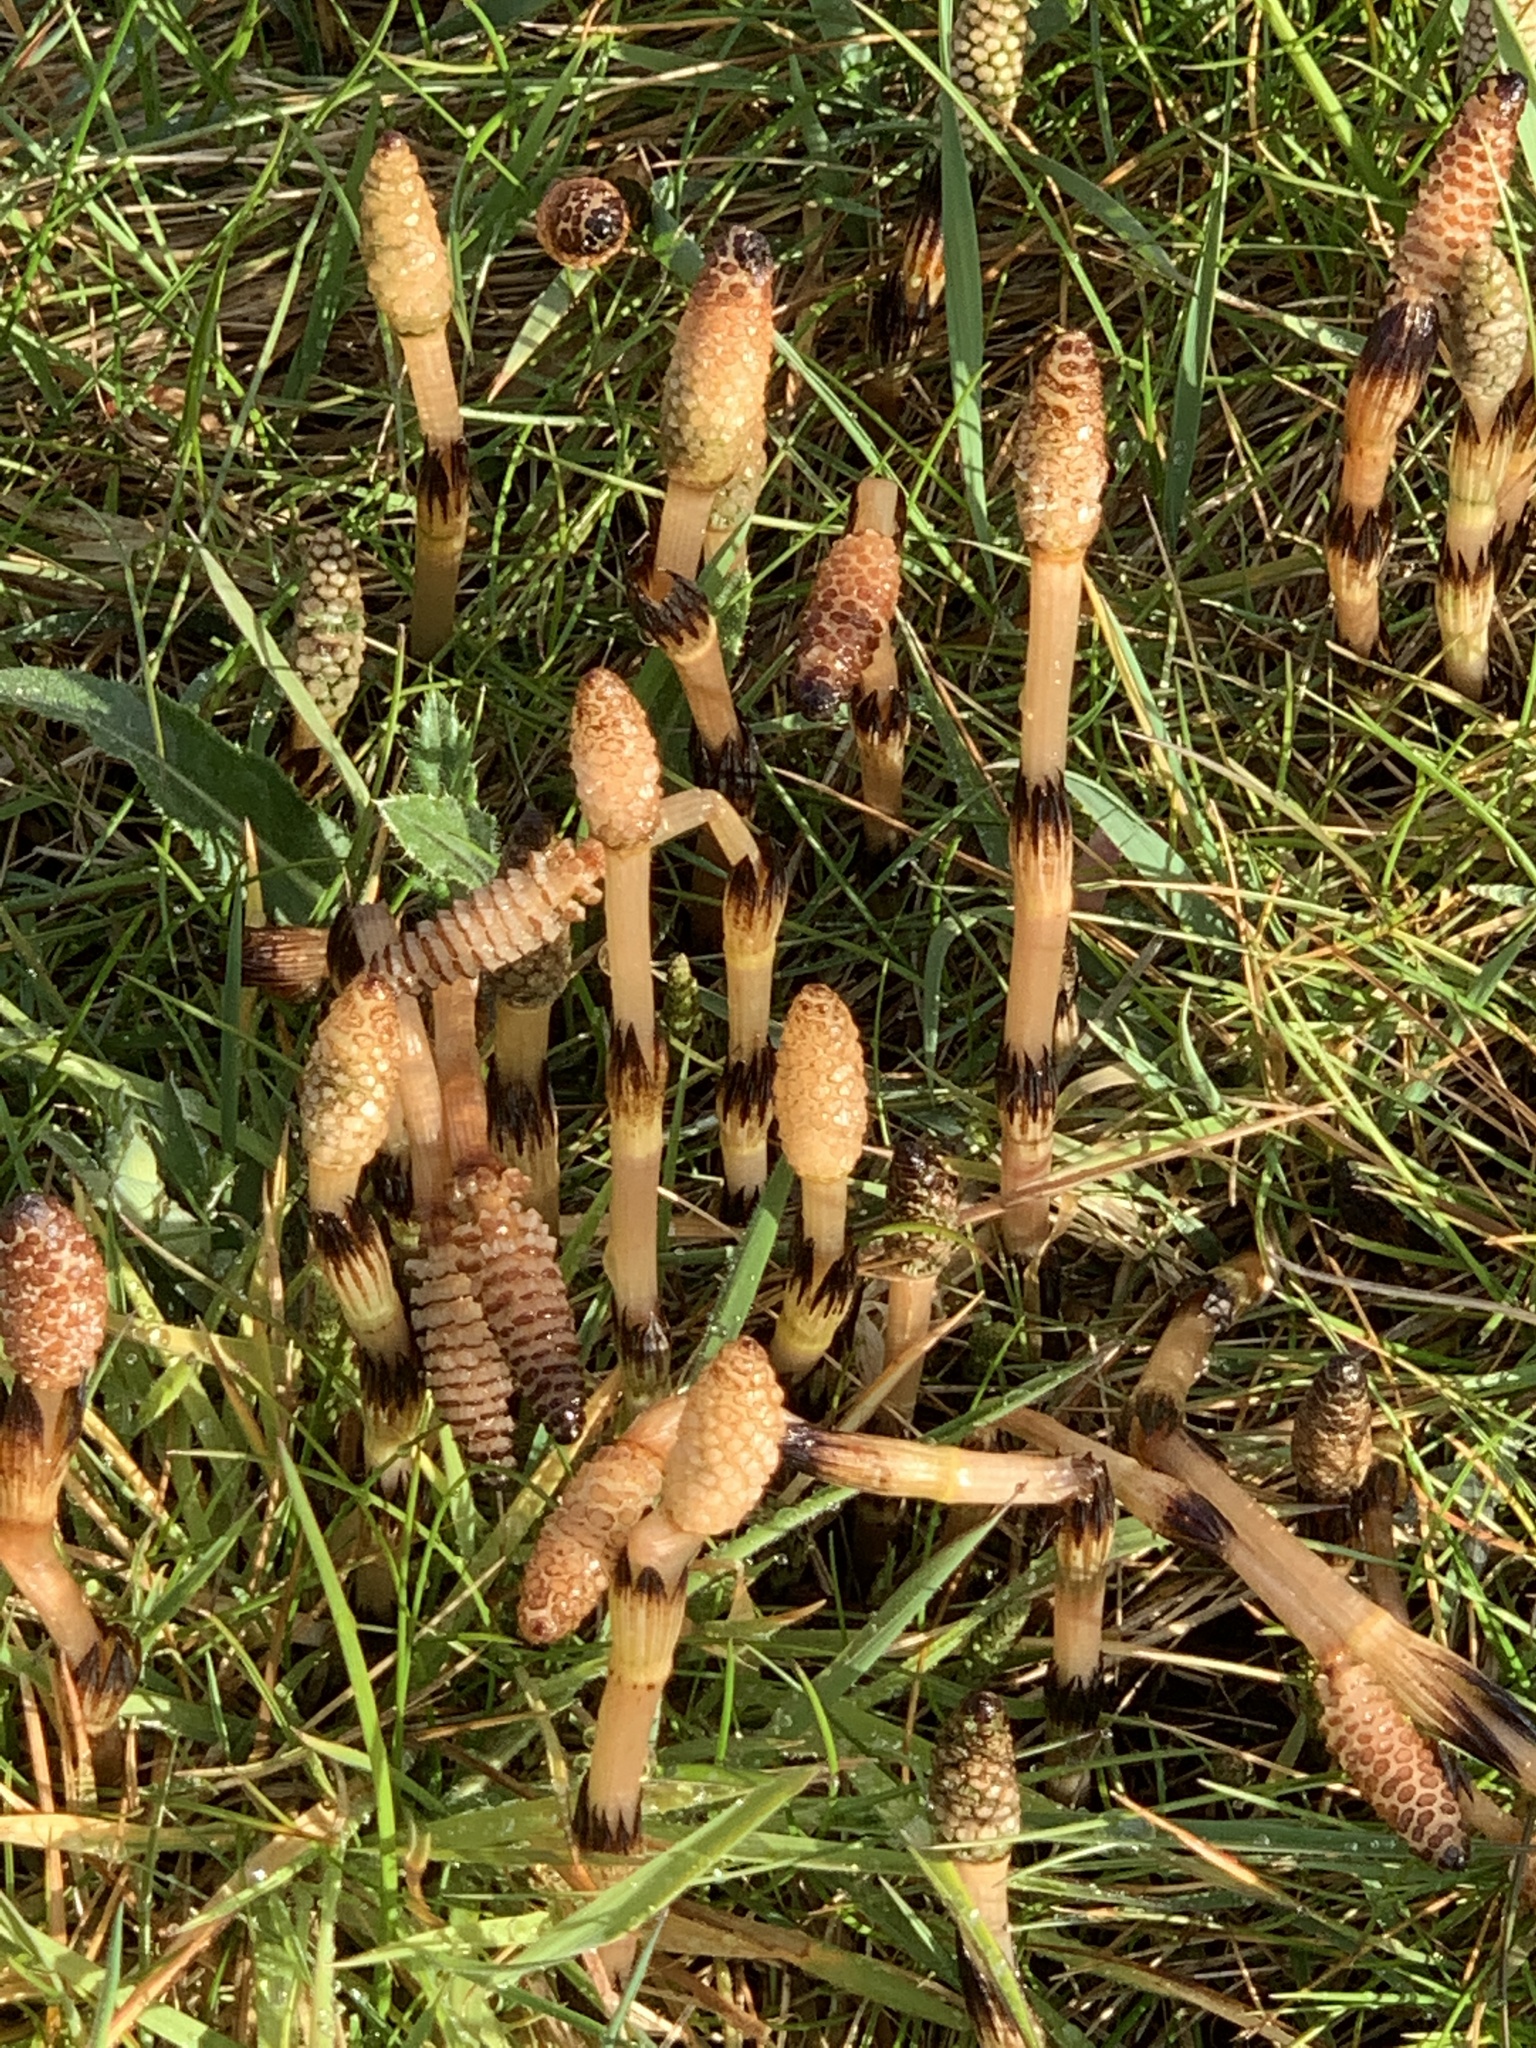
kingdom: Plantae
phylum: Tracheophyta
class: Polypodiopsida
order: Equisetales
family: Equisetaceae
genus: Equisetum
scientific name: Equisetum arvense
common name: Field horsetail
